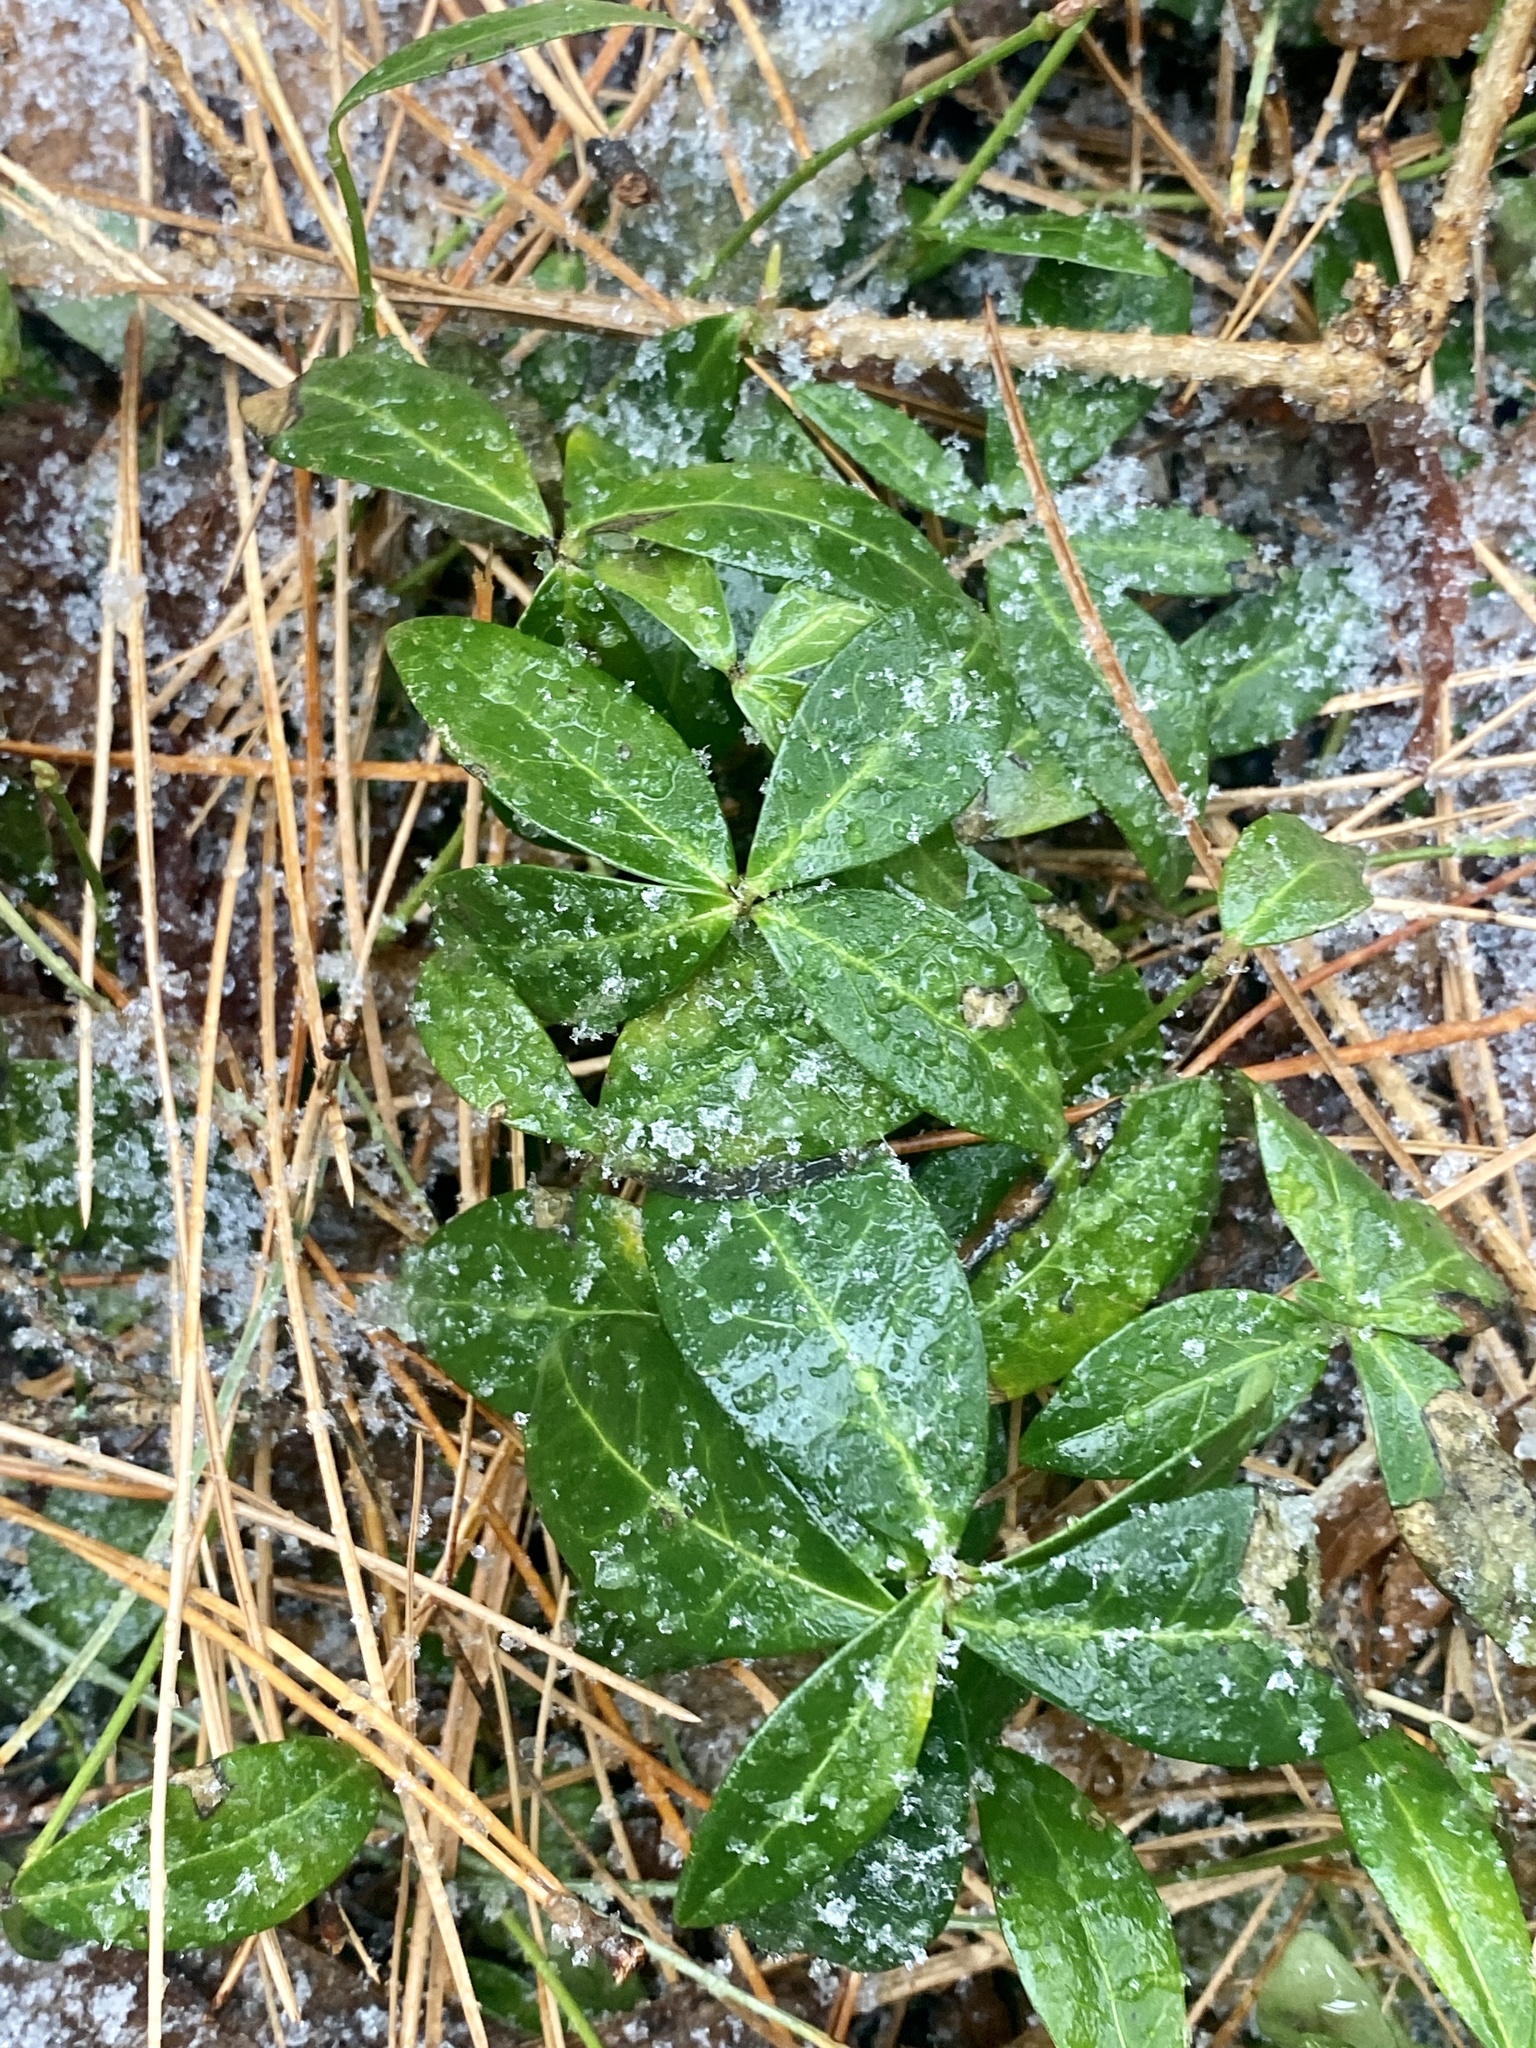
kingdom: Plantae
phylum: Tracheophyta
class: Magnoliopsida
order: Gentianales
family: Apocynaceae
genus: Vinca
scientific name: Vinca minor
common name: Lesser periwinkle
